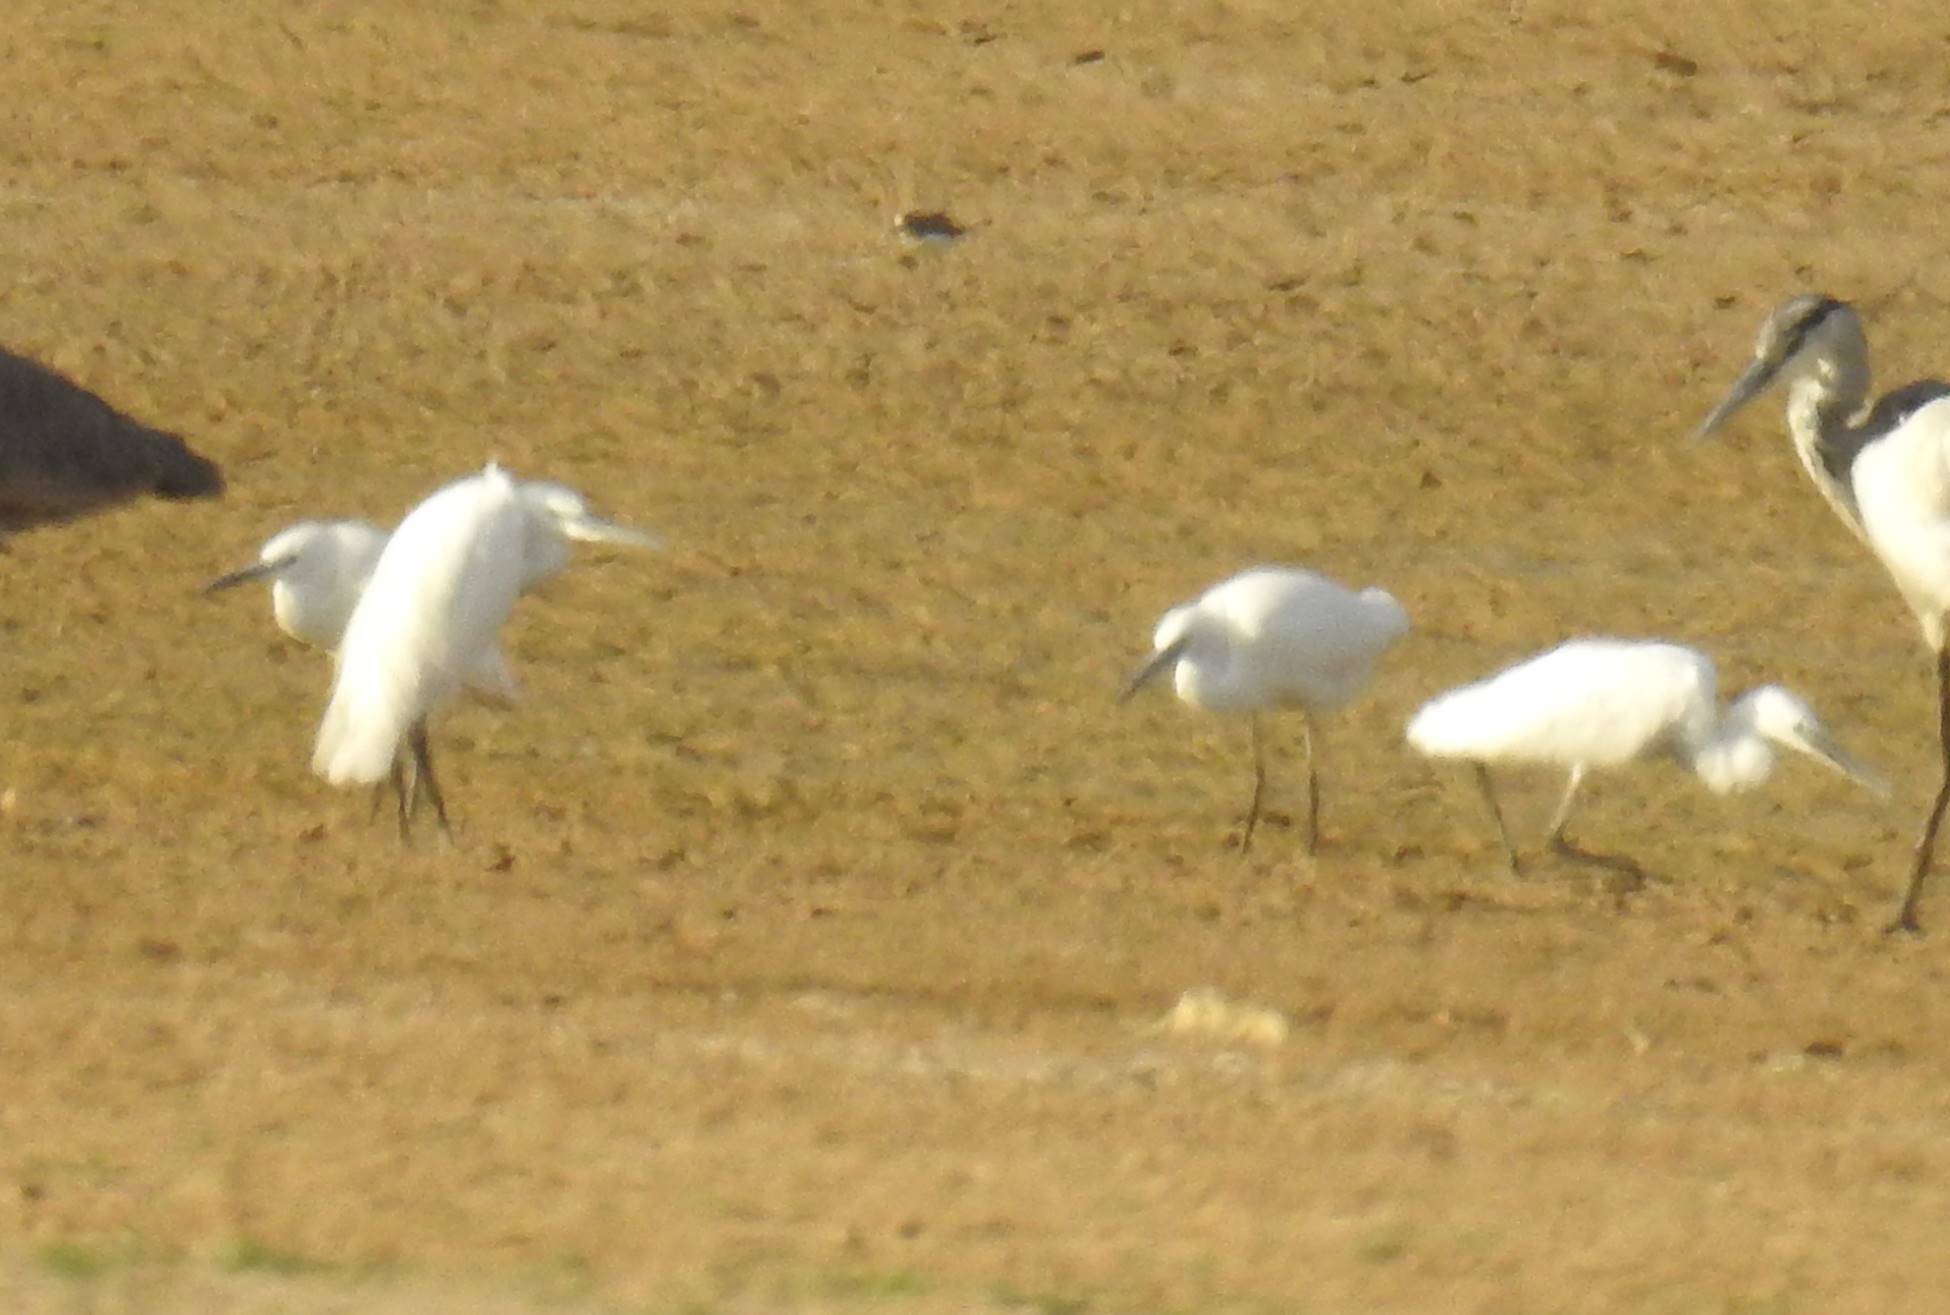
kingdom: Animalia
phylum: Chordata
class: Aves
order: Pelecaniformes
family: Ardeidae
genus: Egretta
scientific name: Egretta garzetta
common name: Little egret
